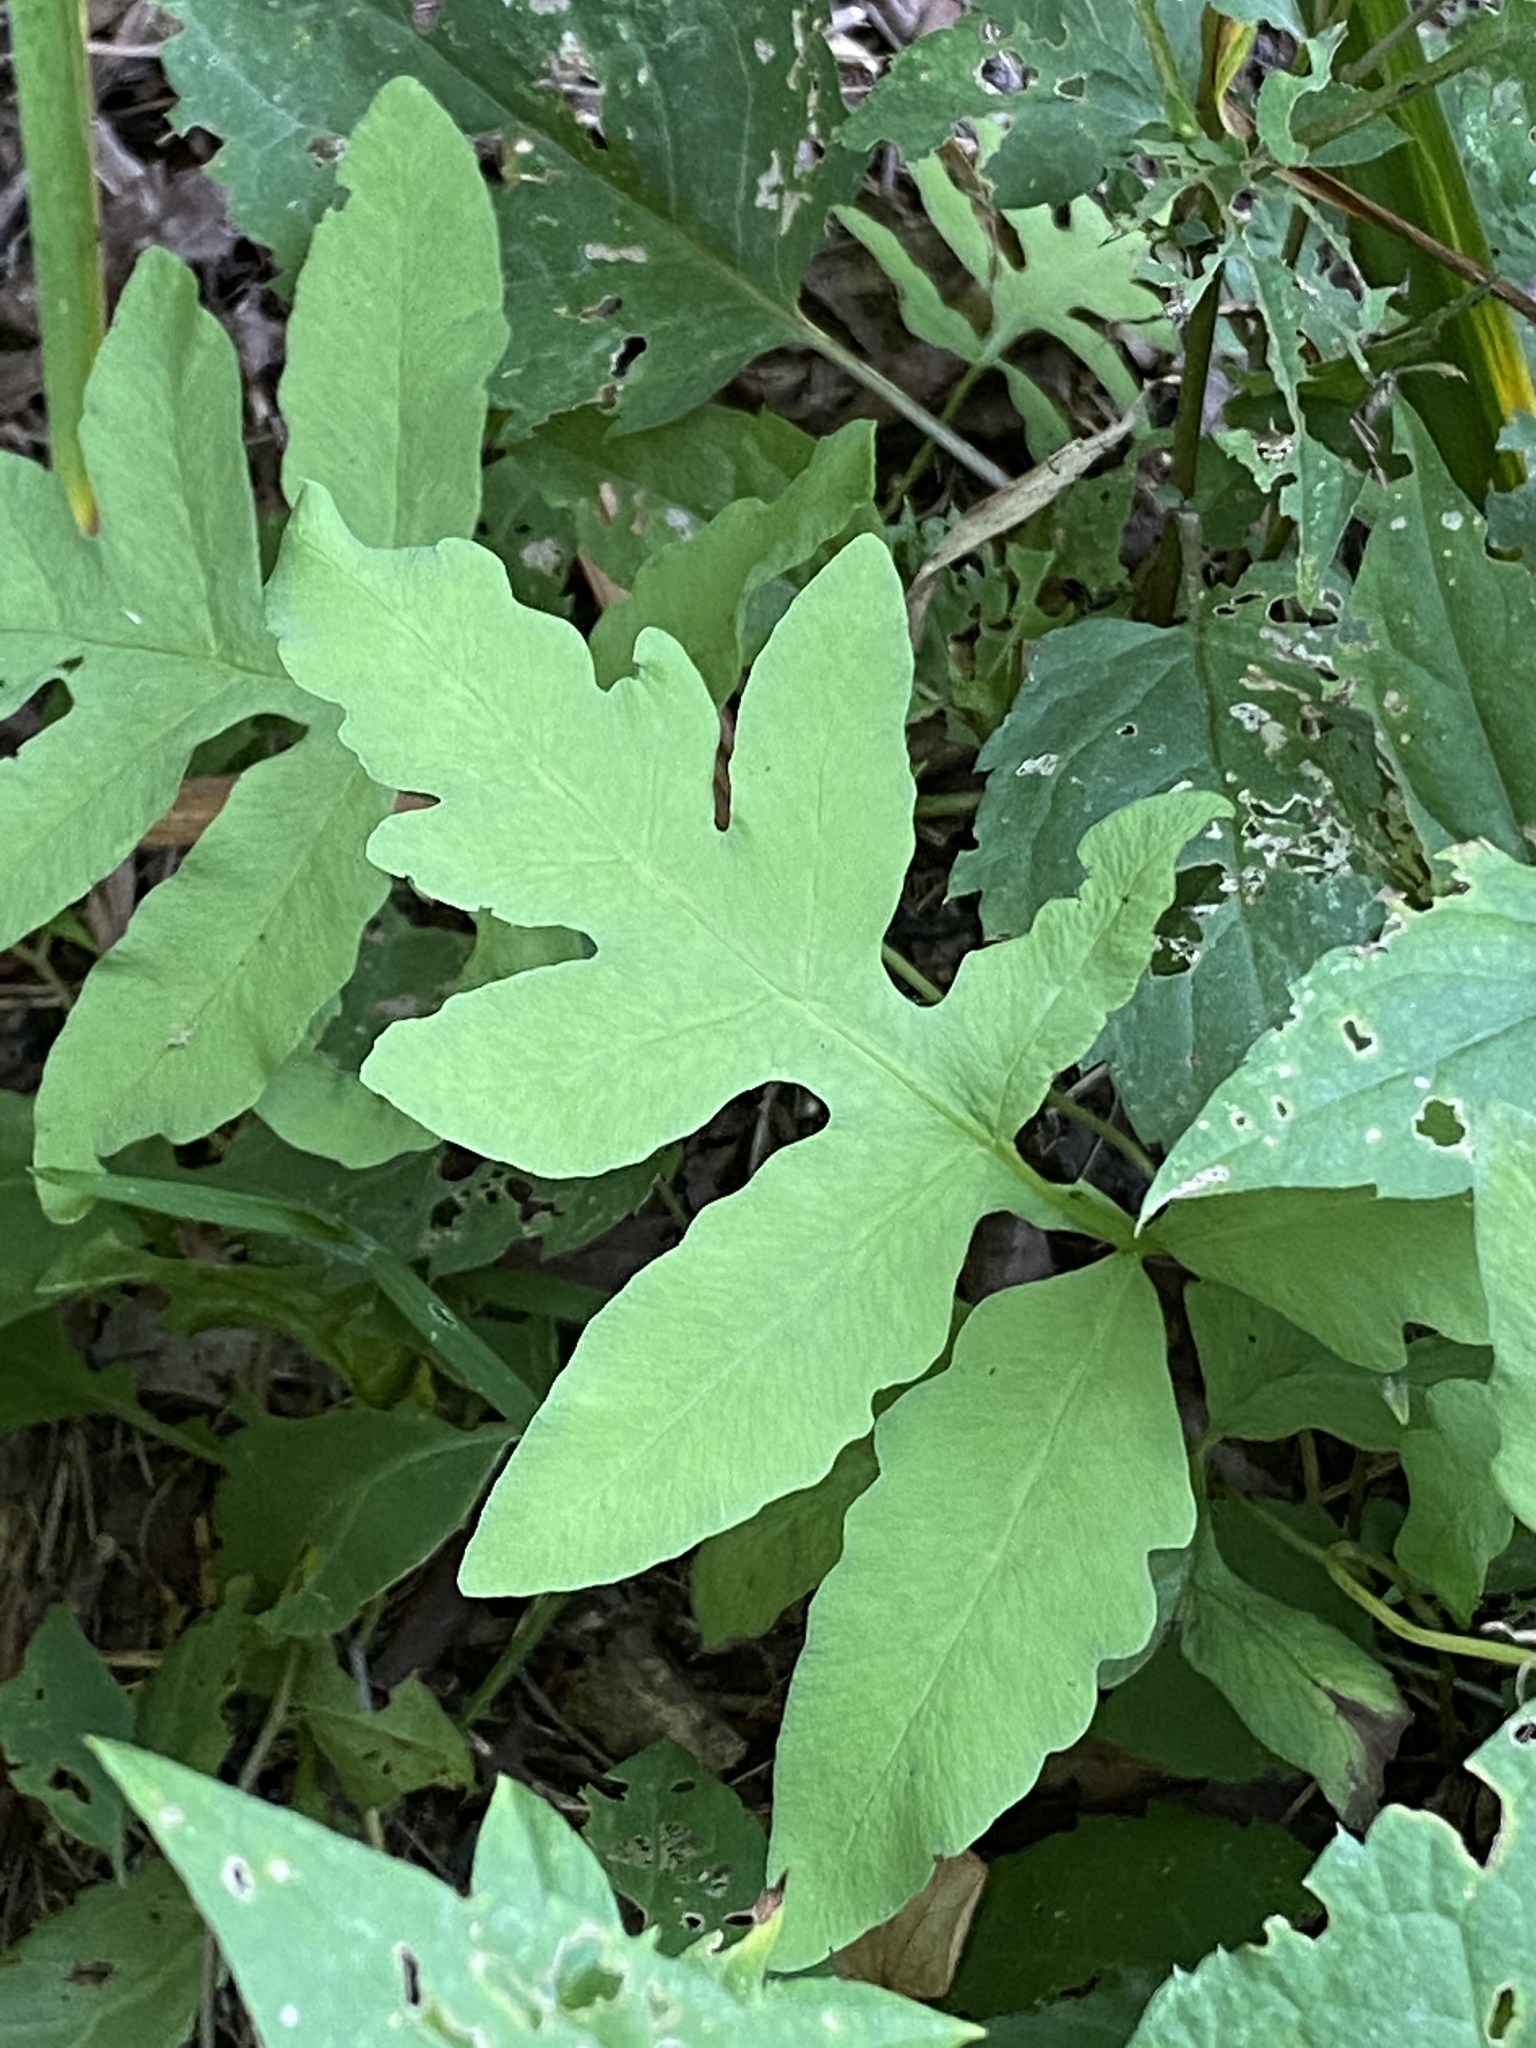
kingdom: Plantae
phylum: Tracheophyta
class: Polypodiopsida
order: Polypodiales
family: Onocleaceae
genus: Onoclea
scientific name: Onoclea sensibilis
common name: Sensitive fern
